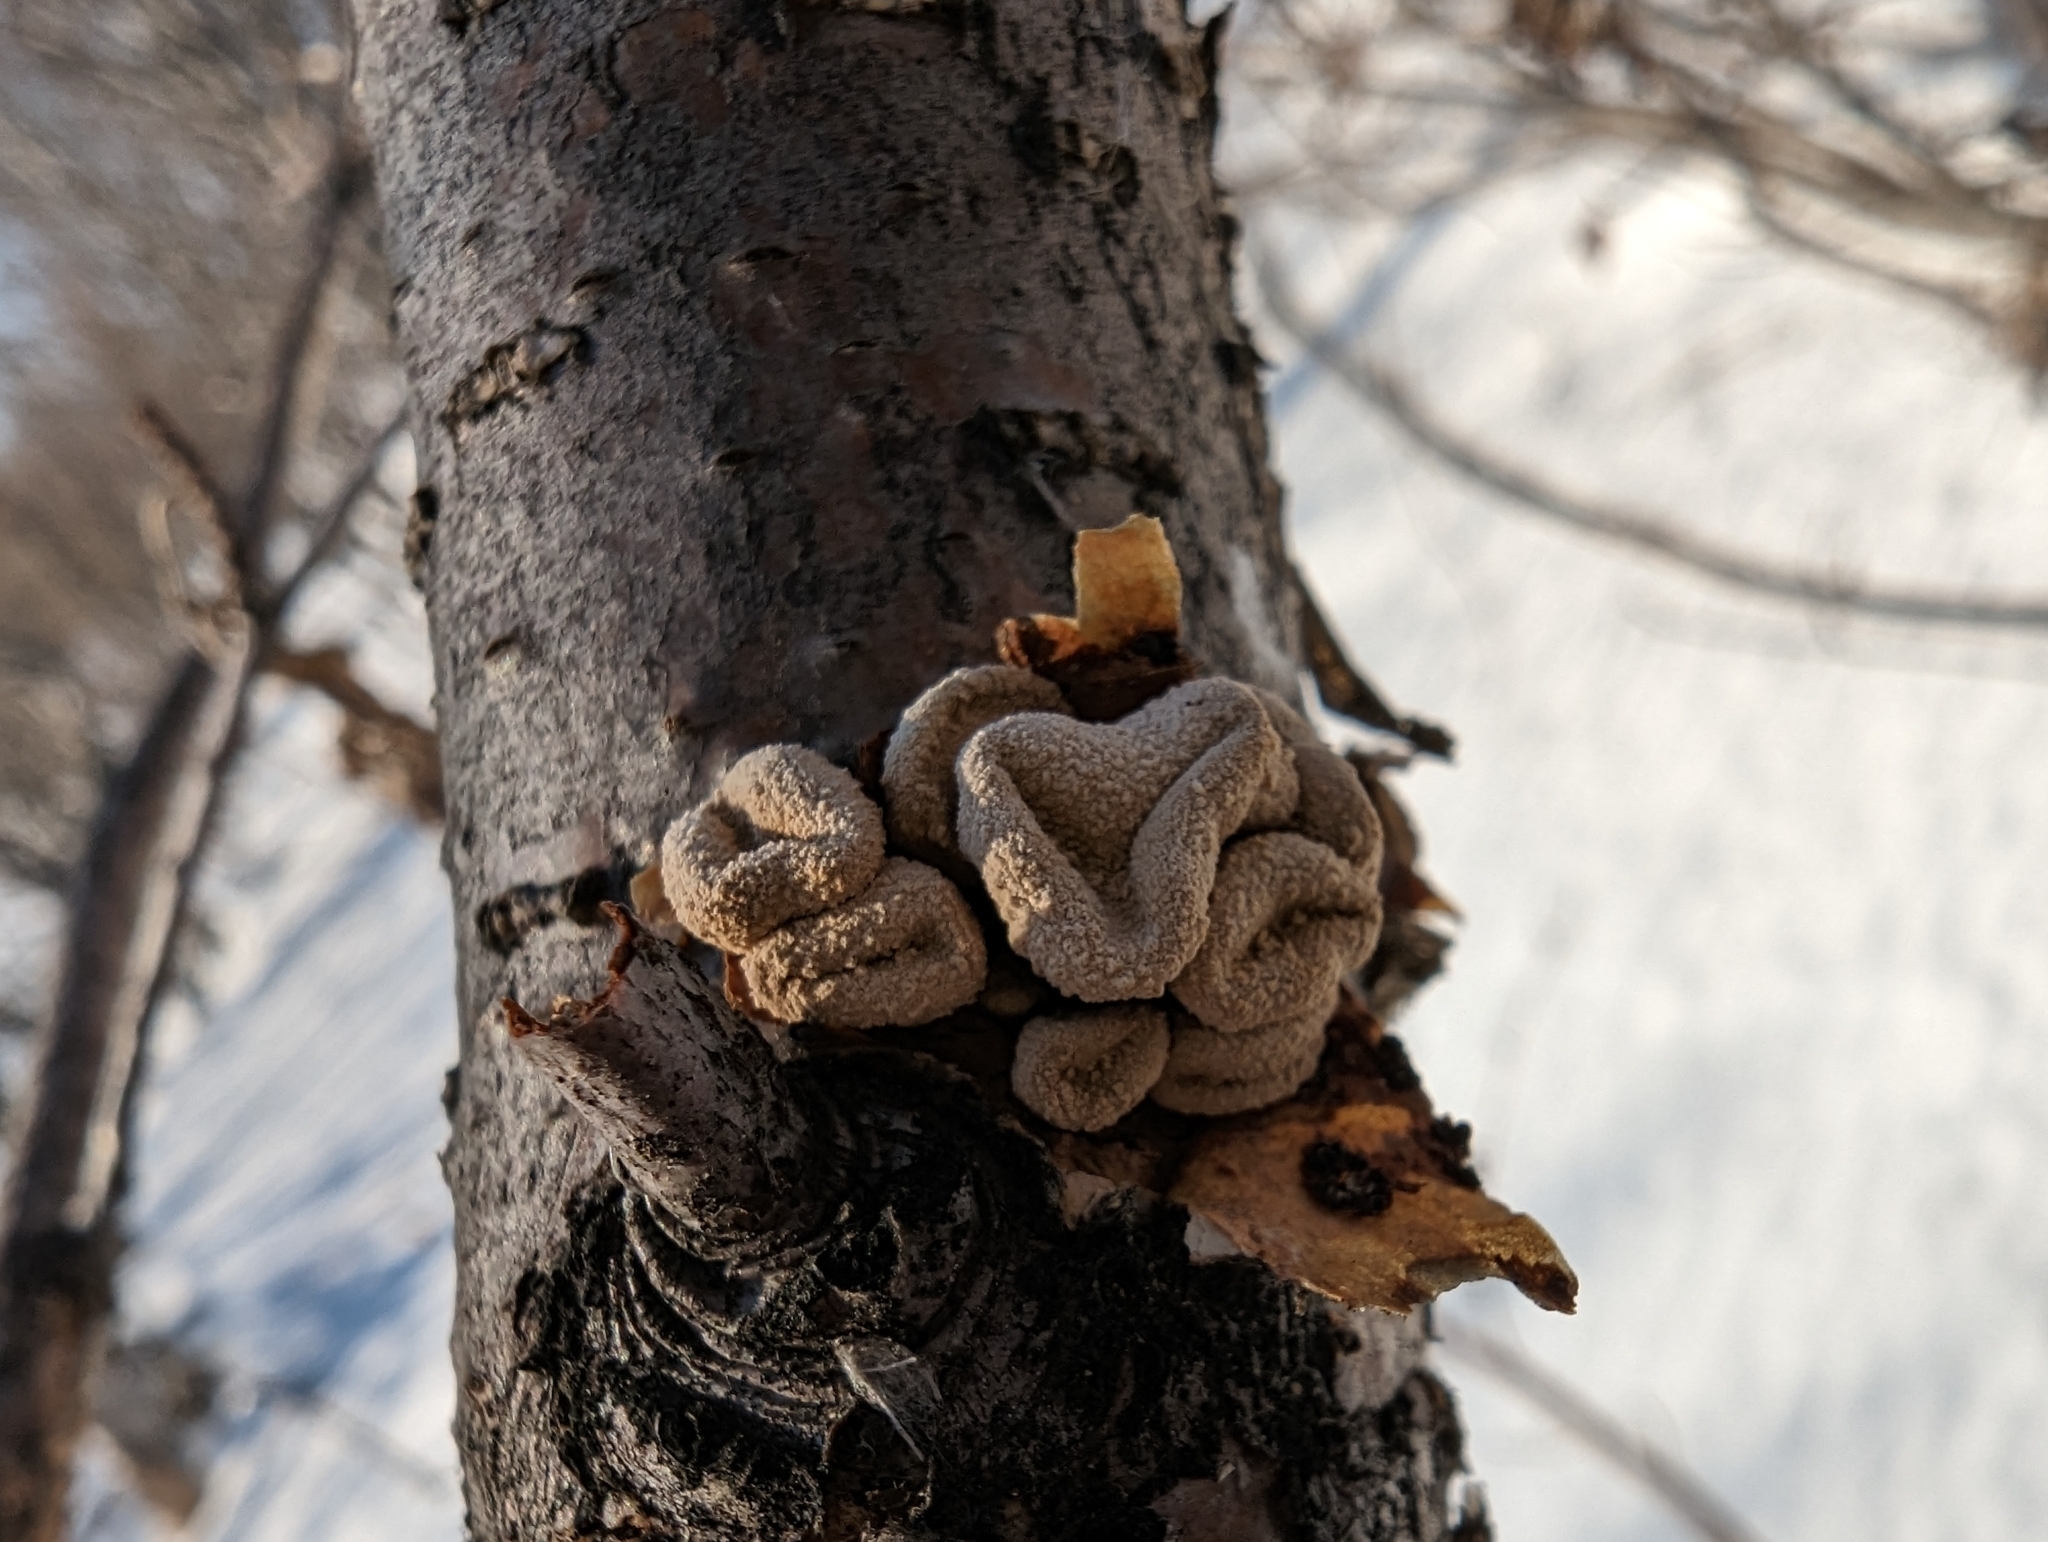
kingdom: Fungi
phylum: Ascomycota
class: Leotiomycetes
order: Helotiales
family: Cenangiaceae
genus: Encoelia
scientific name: Encoelia furfuracea
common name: Spring hazelcup
